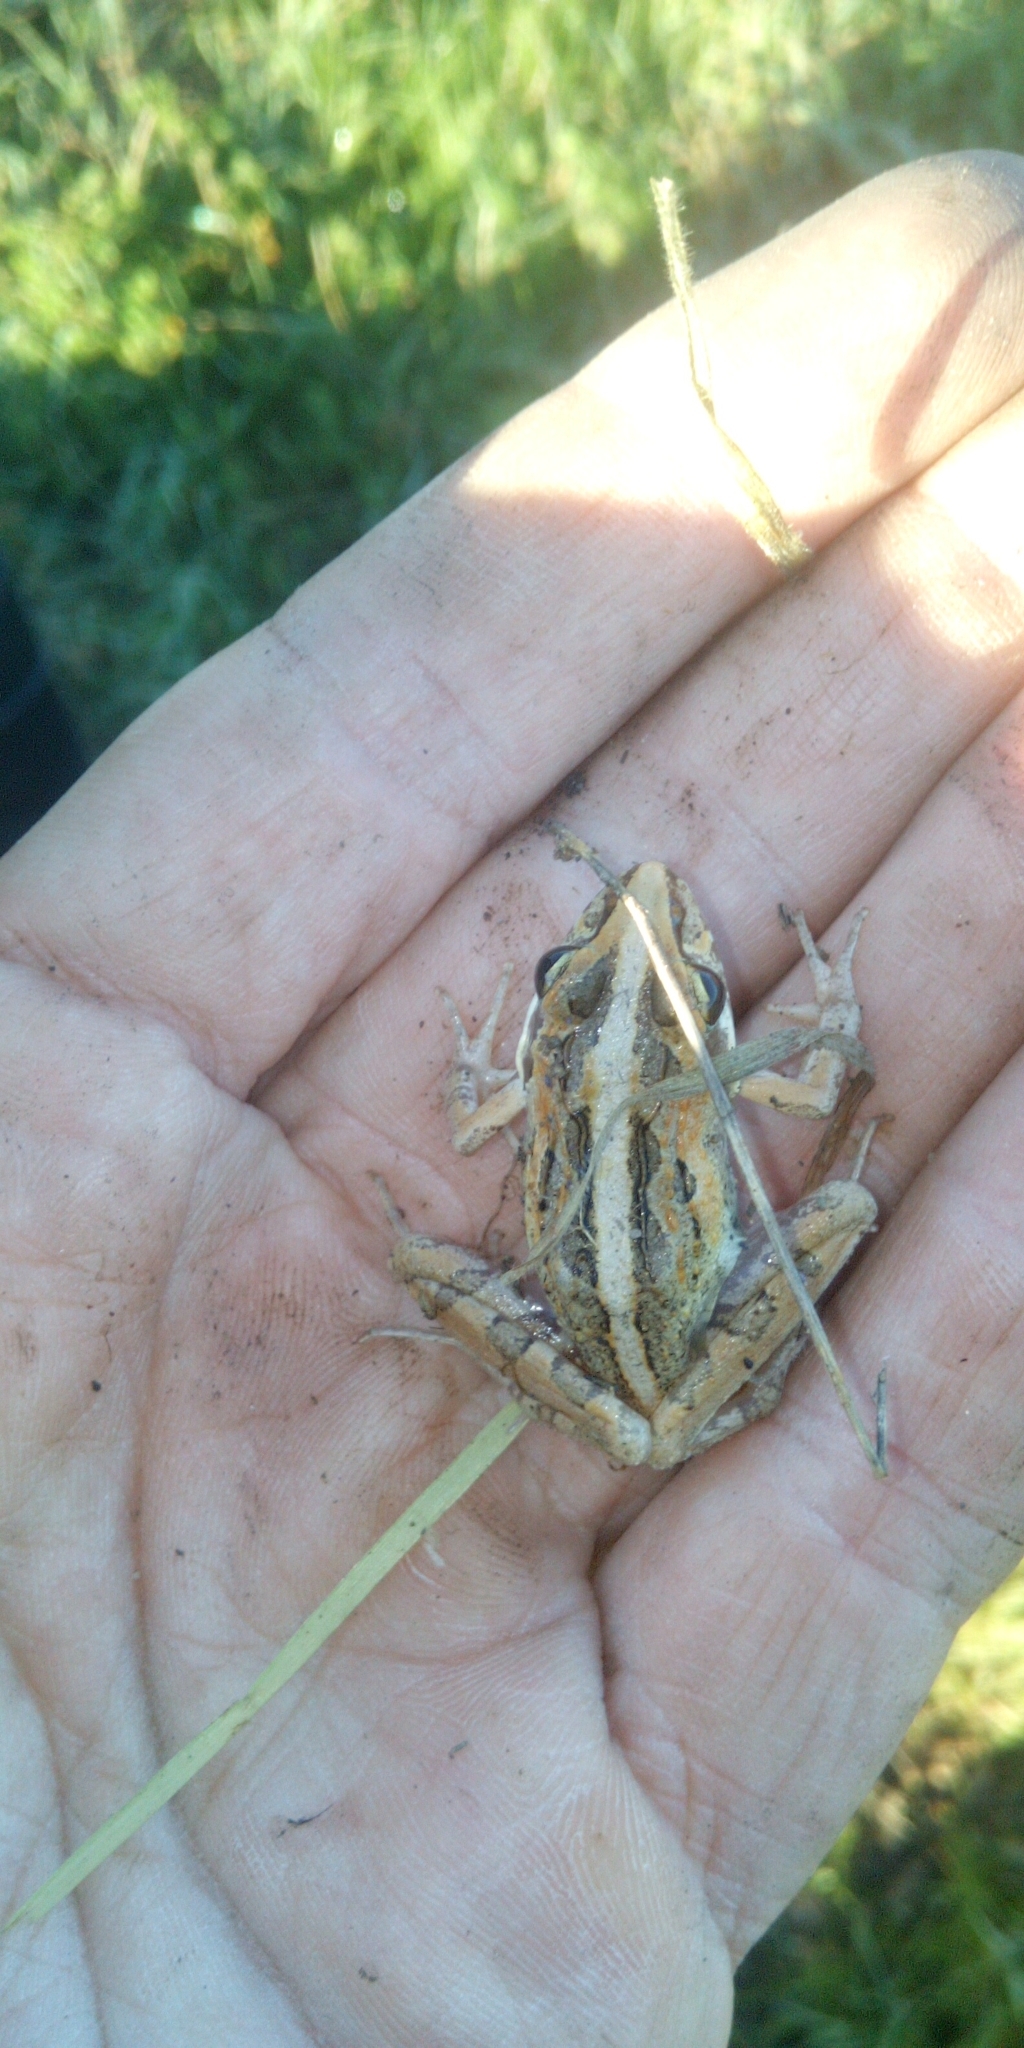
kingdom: Animalia
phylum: Chordata
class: Amphibia
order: Anura
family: Pyxicephalidae
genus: Strongylopus
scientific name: Strongylopus grayii
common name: Gray's stream frog
